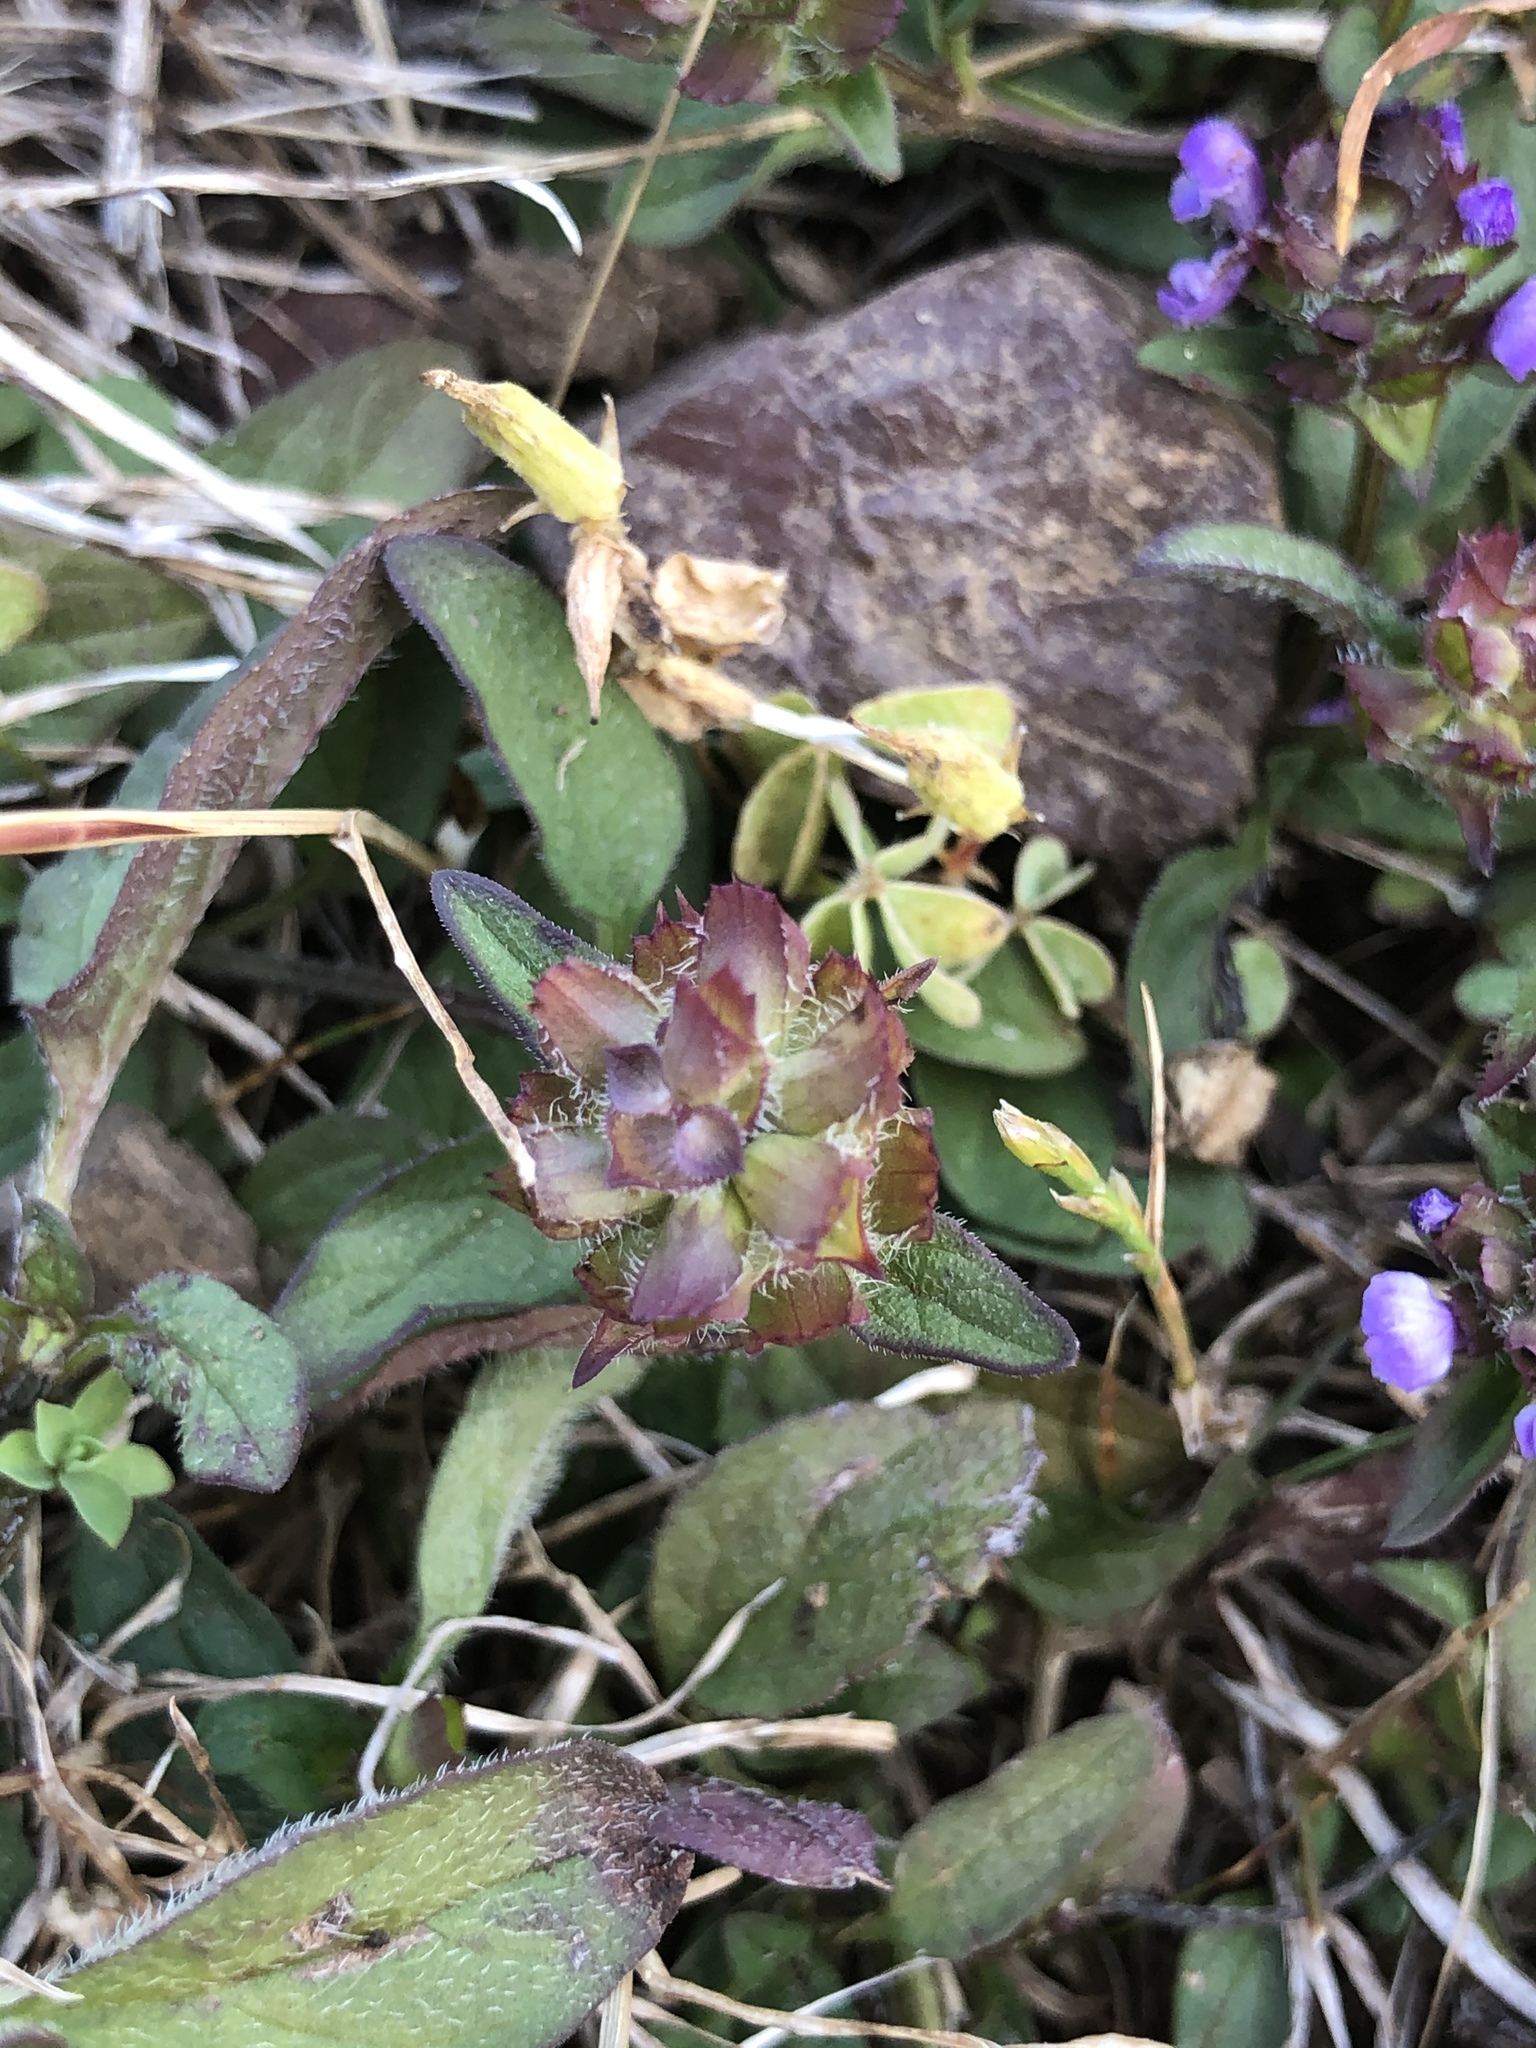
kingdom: Plantae
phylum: Tracheophyta
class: Magnoliopsida
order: Lamiales
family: Lamiaceae
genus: Prunella
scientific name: Prunella vulgaris
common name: Heal-all
